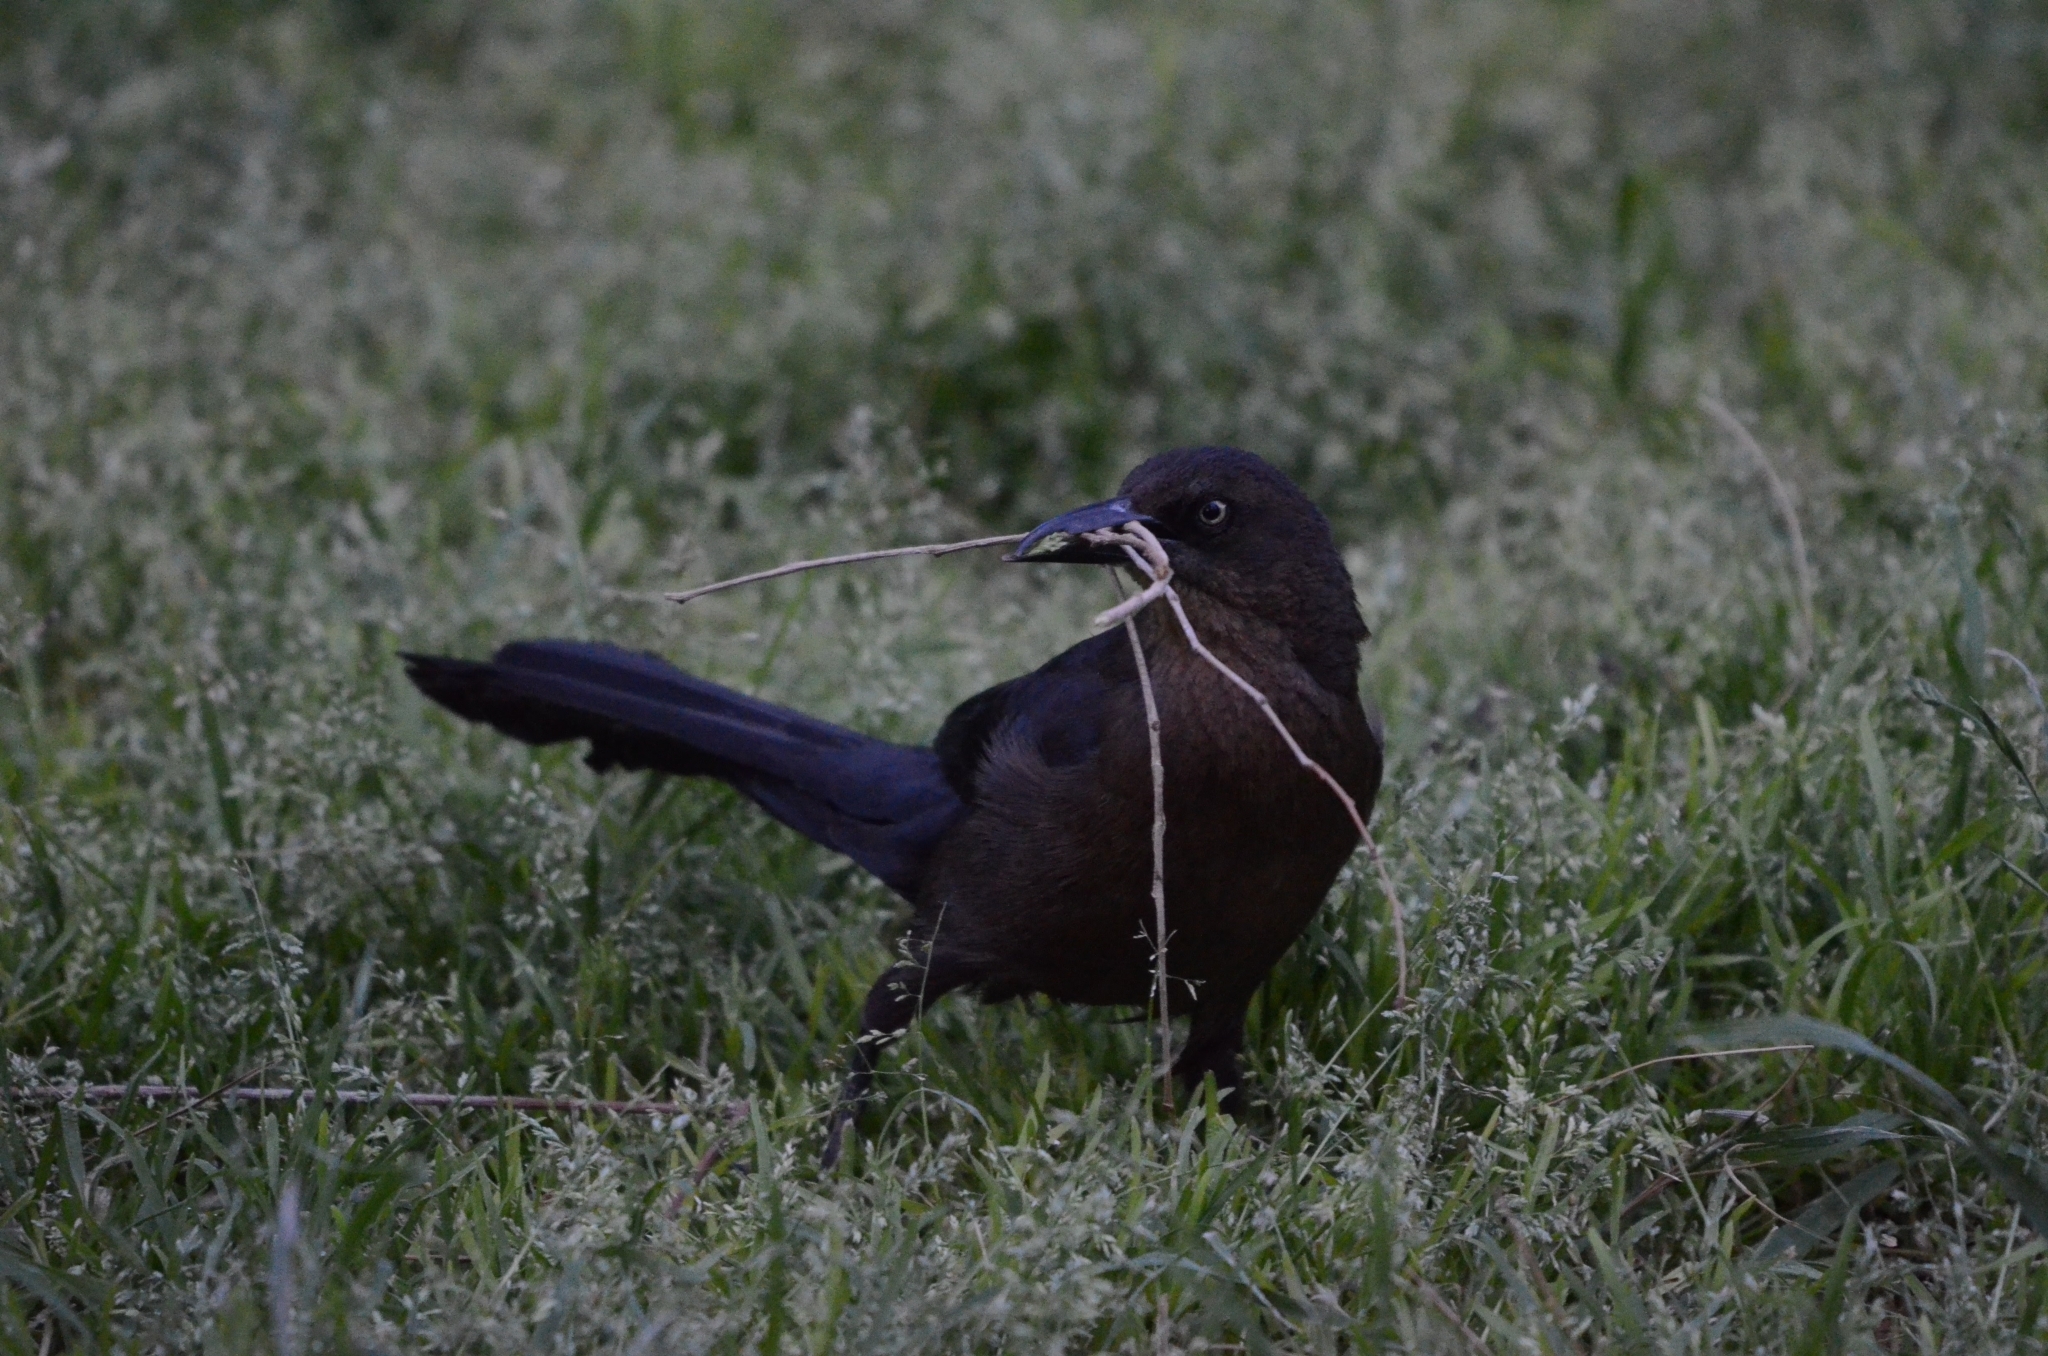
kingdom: Animalia
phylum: Chordata
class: Aves
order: Passeriformes
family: Icteridae
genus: Quiscalus
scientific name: Quiscalus mexicanus
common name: Great-tailed grackle
